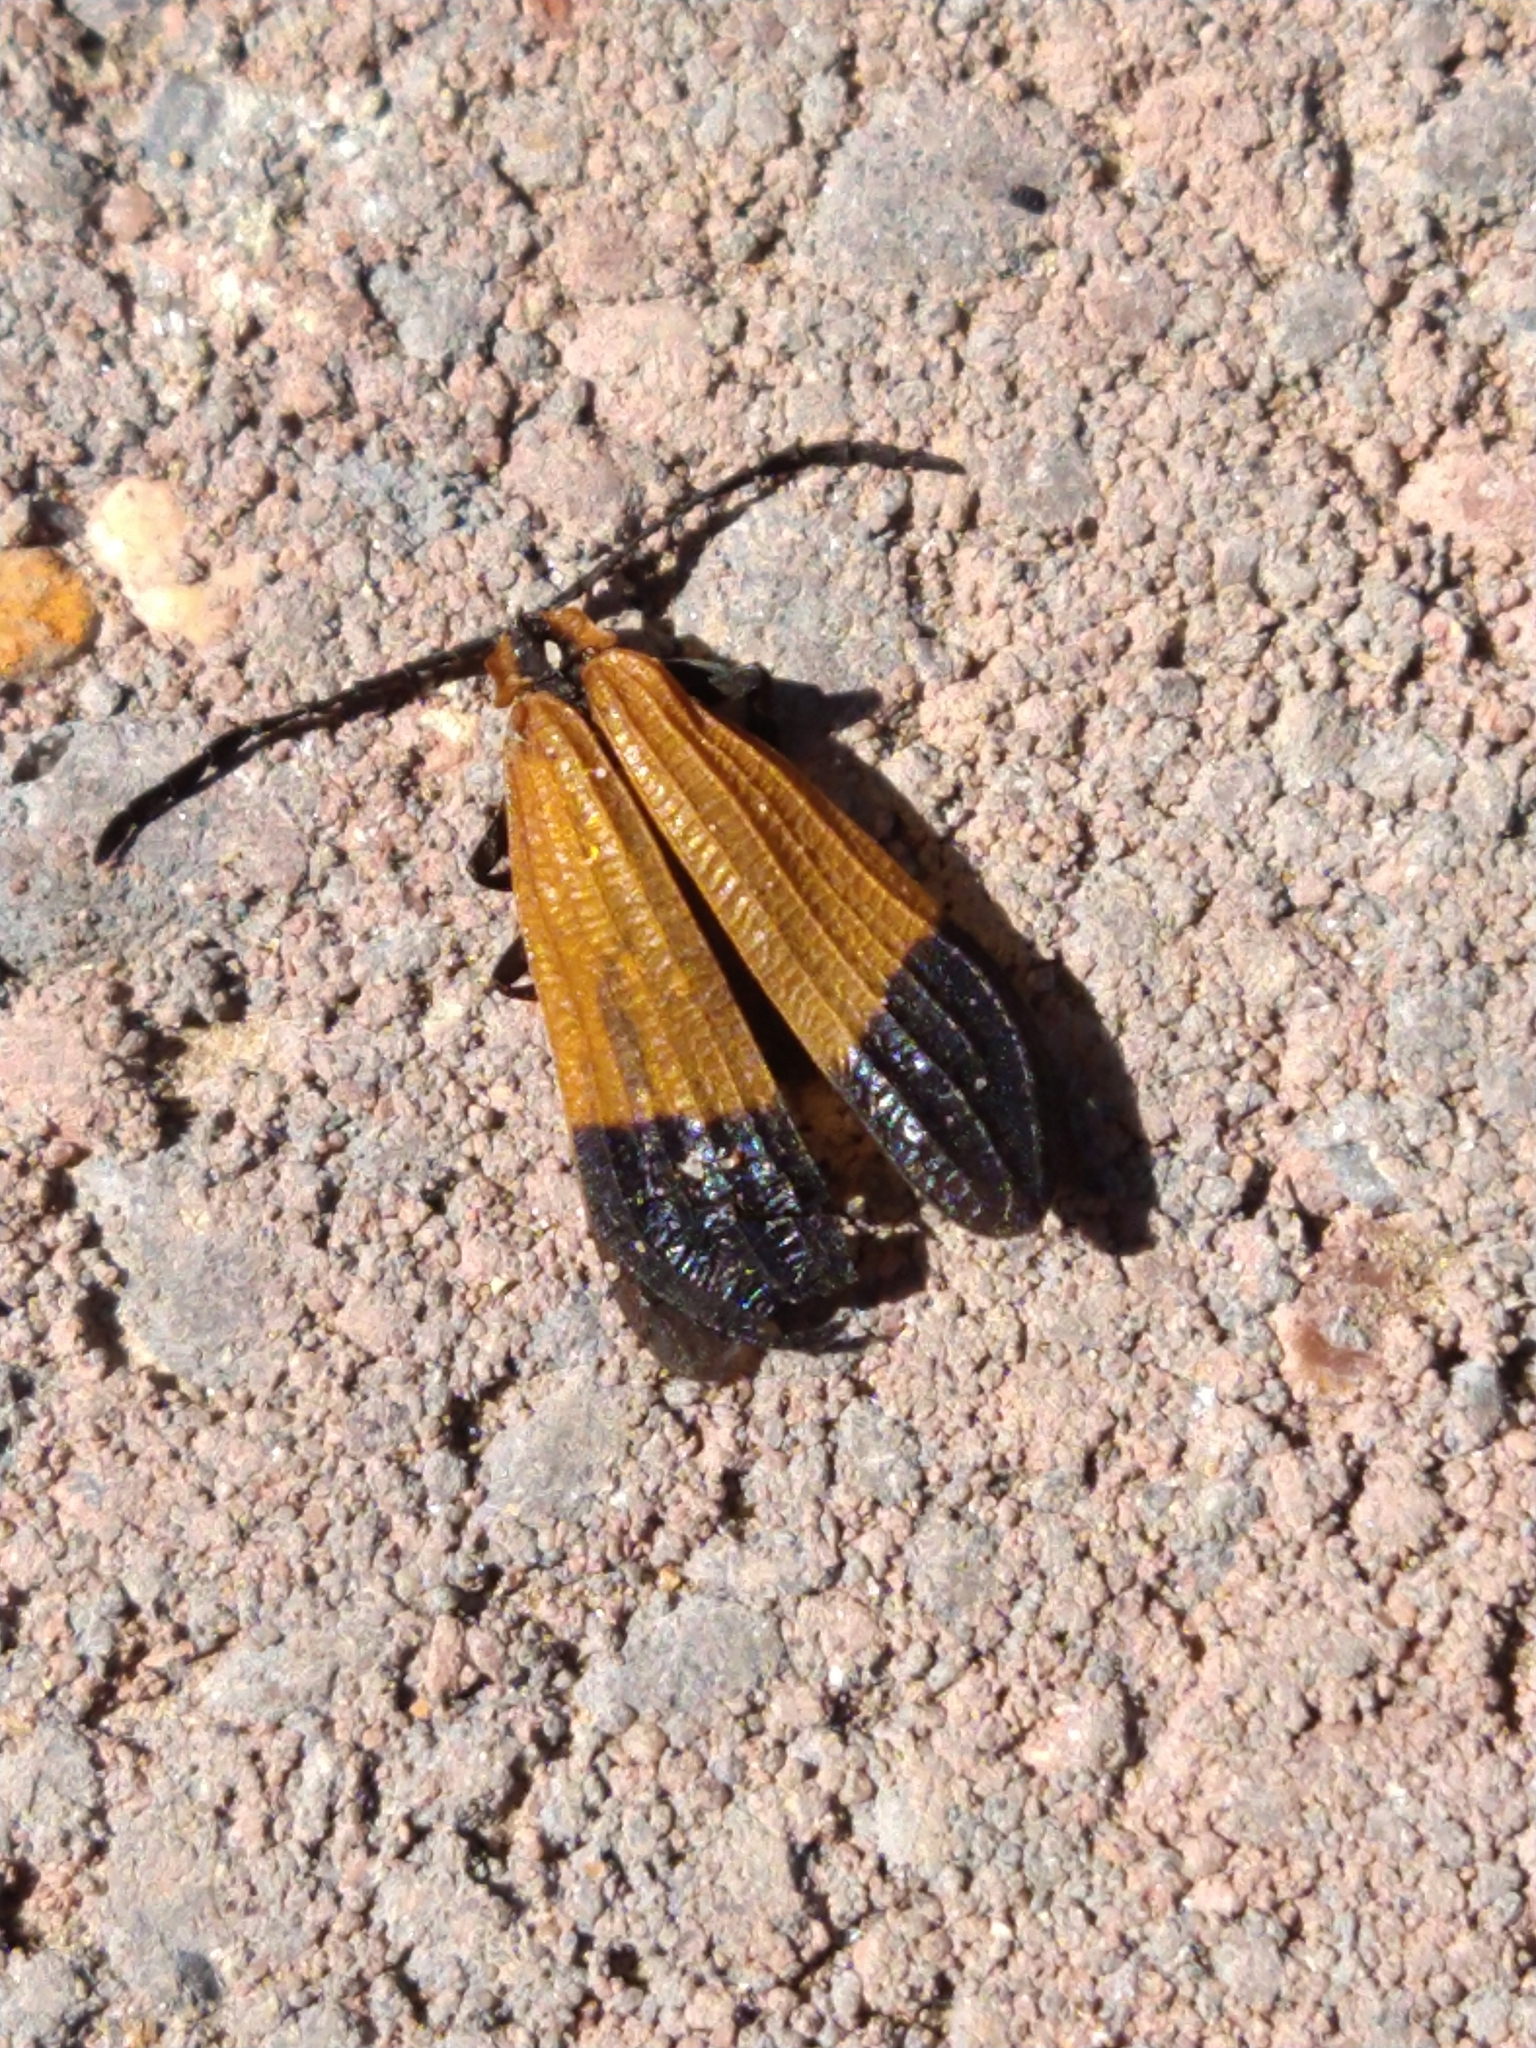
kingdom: Animalia
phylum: Arthropoda
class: Insecta
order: Coleoptera
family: Lycidae
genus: Calopteron
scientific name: Calopteron terminale
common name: End band net-winged beetle
